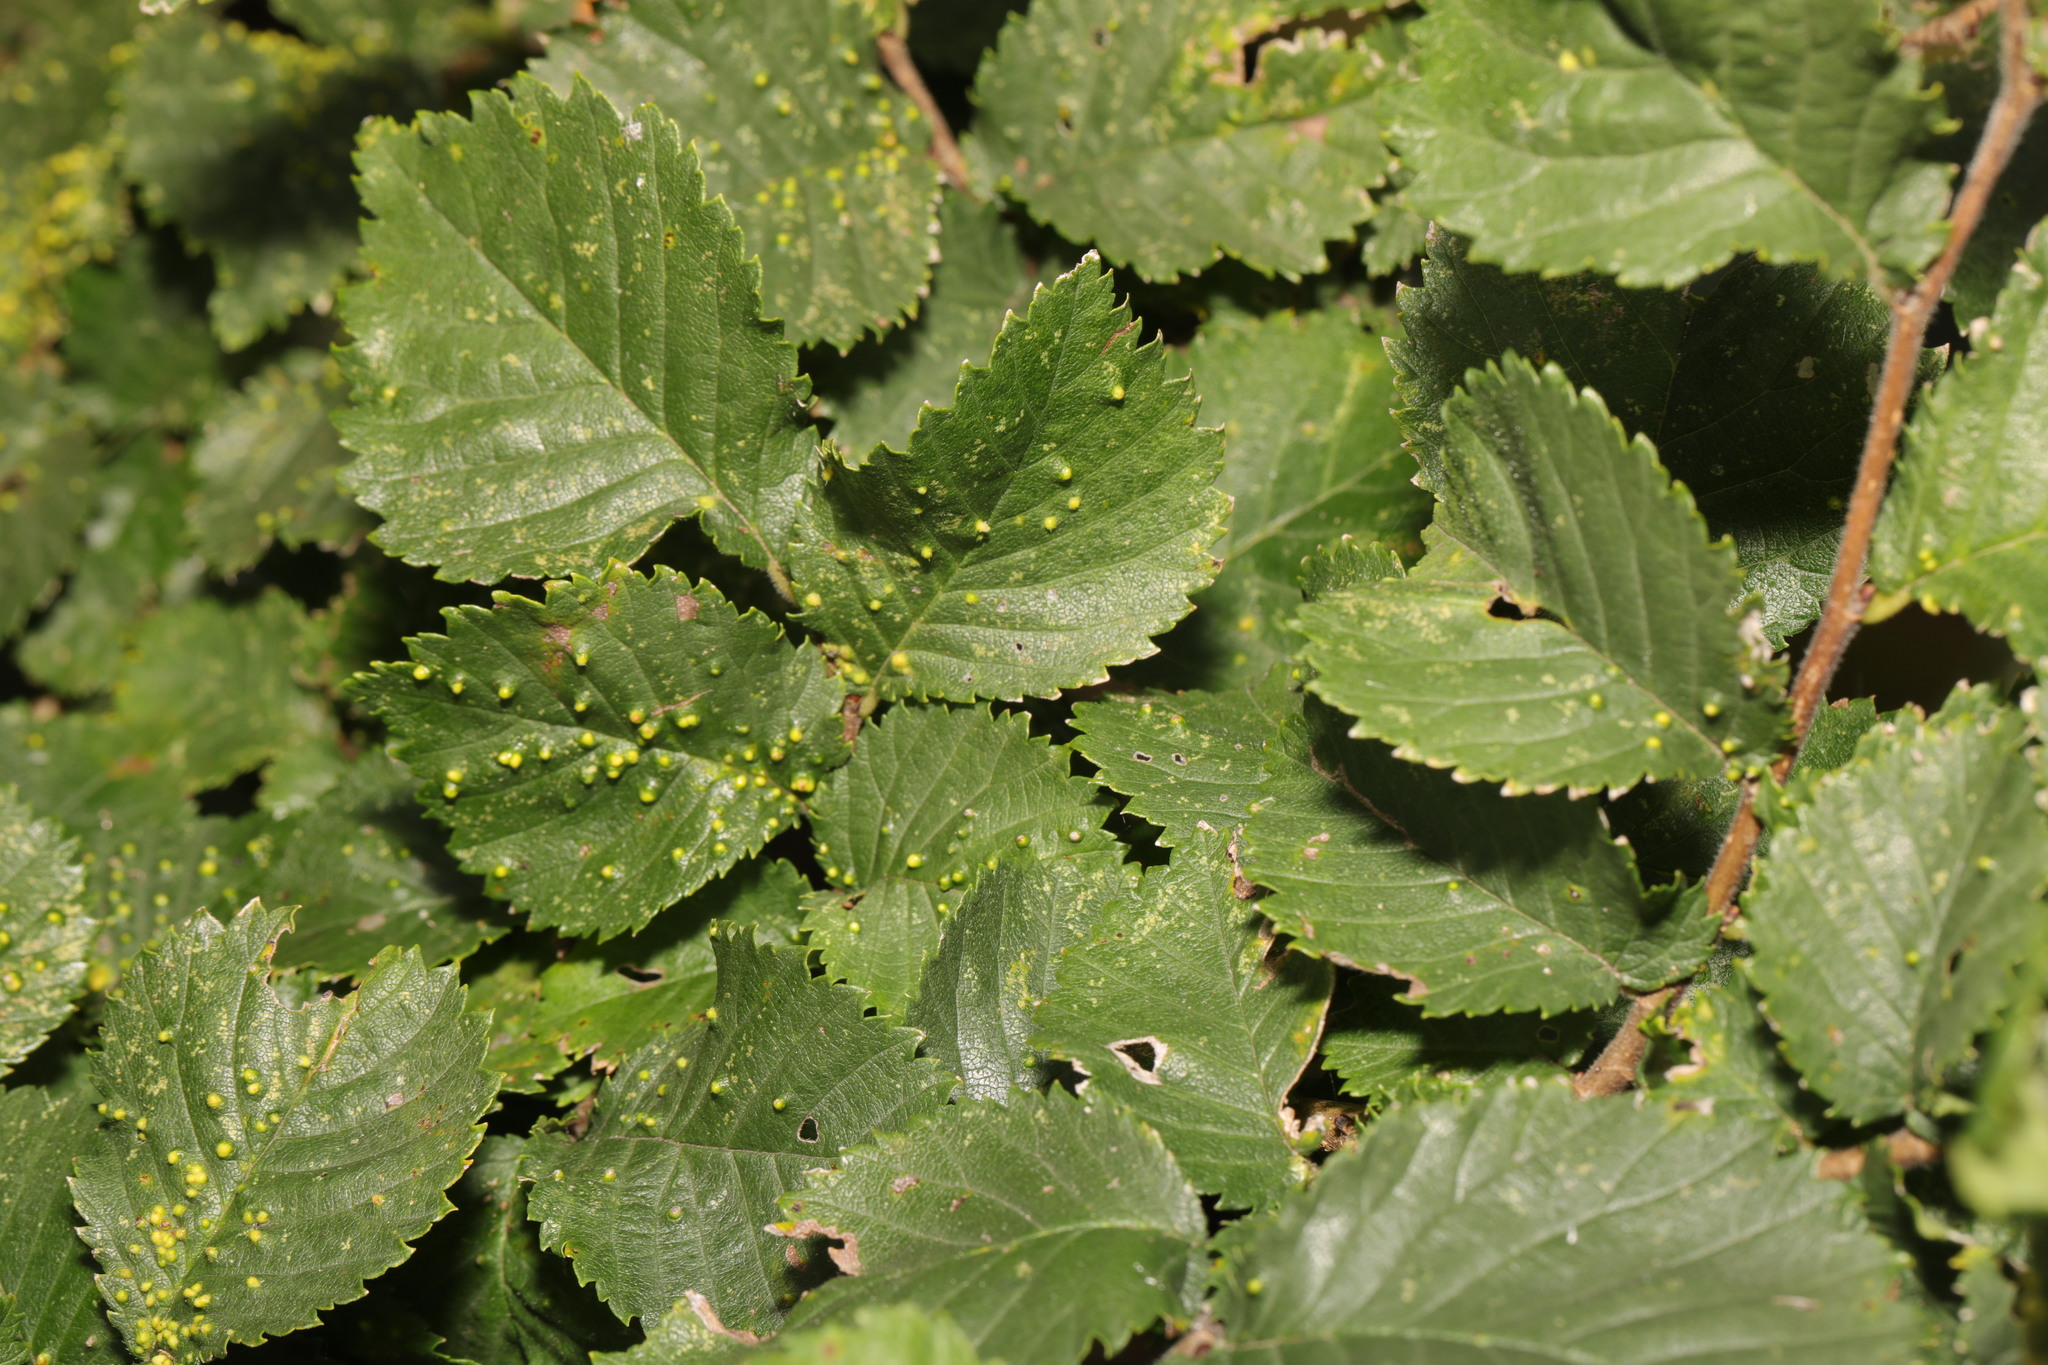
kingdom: Animalia
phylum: Arthropoda
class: Arachnida
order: Trombidiformes
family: Eriophyidae
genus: Aceria
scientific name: Aceria brevipunctata
